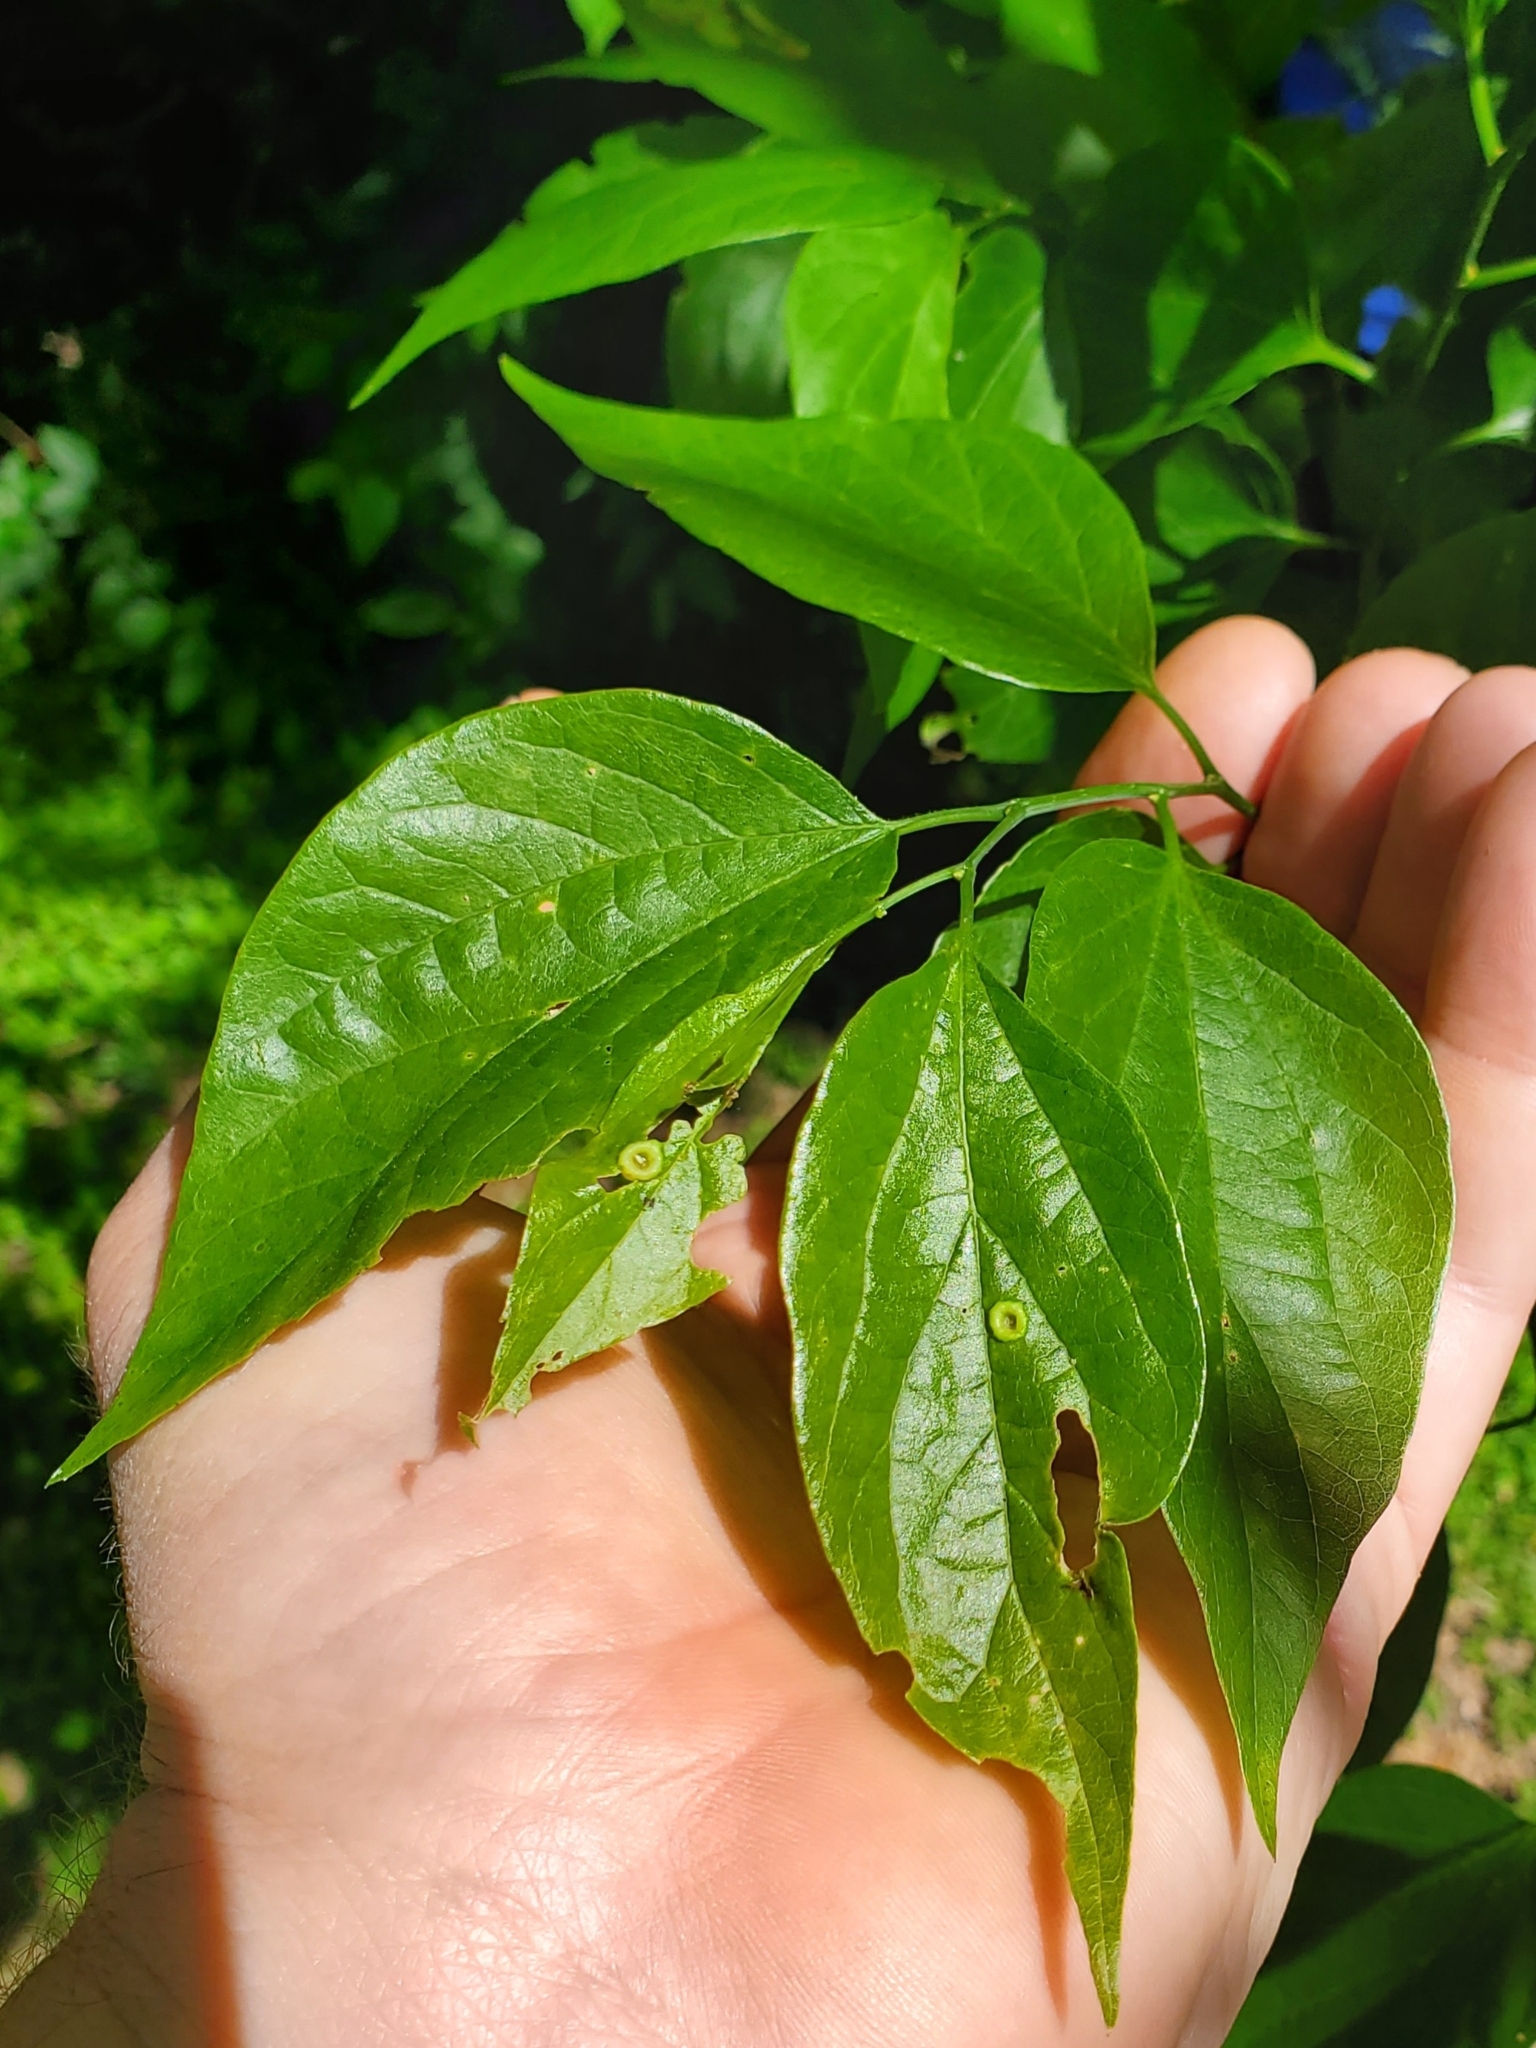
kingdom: Animalia
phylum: Arthropoda
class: Insecta
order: Hemiptera
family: Aphalaridae
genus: Pachypsylla
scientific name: Pachypsylla celtidismamma
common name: Hackberry nipplegall psyllid
